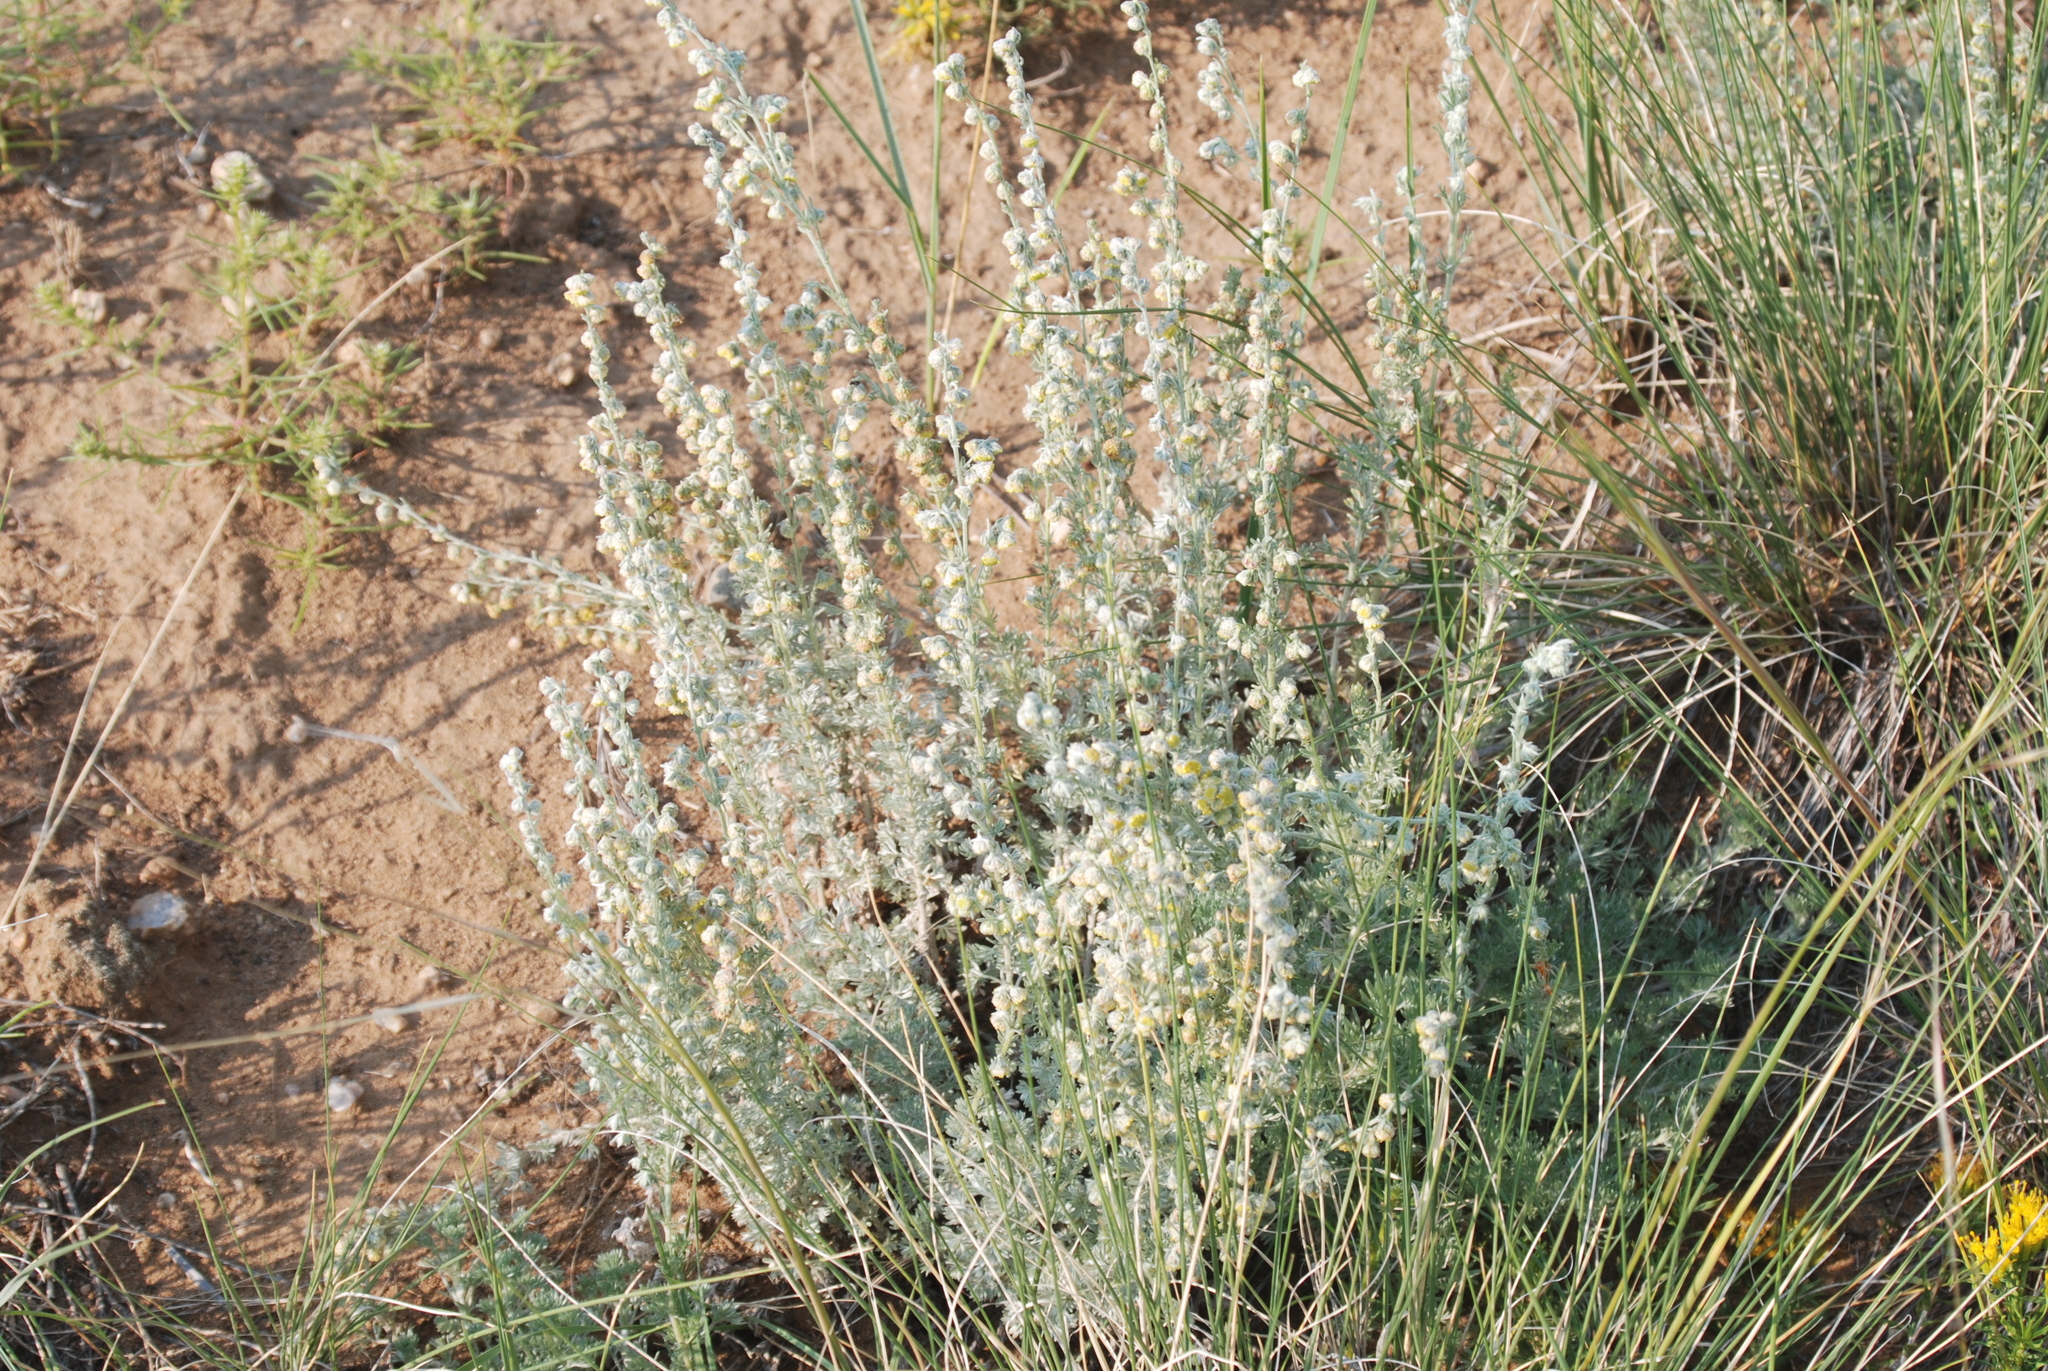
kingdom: Plantae
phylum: Tracheophyta
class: Magnoliopsida
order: Asterales
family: Asteraceae
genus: Artemisia
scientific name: Artemisia frigida
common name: Prairie sagewort
